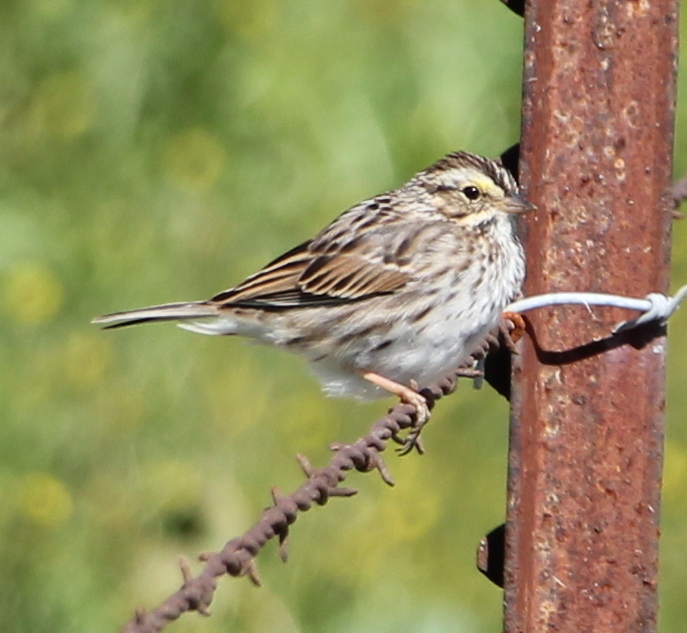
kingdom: Animalia
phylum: Chordata
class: Aves
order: Passeriformes
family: Passerellidae
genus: Passerculus
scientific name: Passerculus sandwichensis
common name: Savannah sparrow
